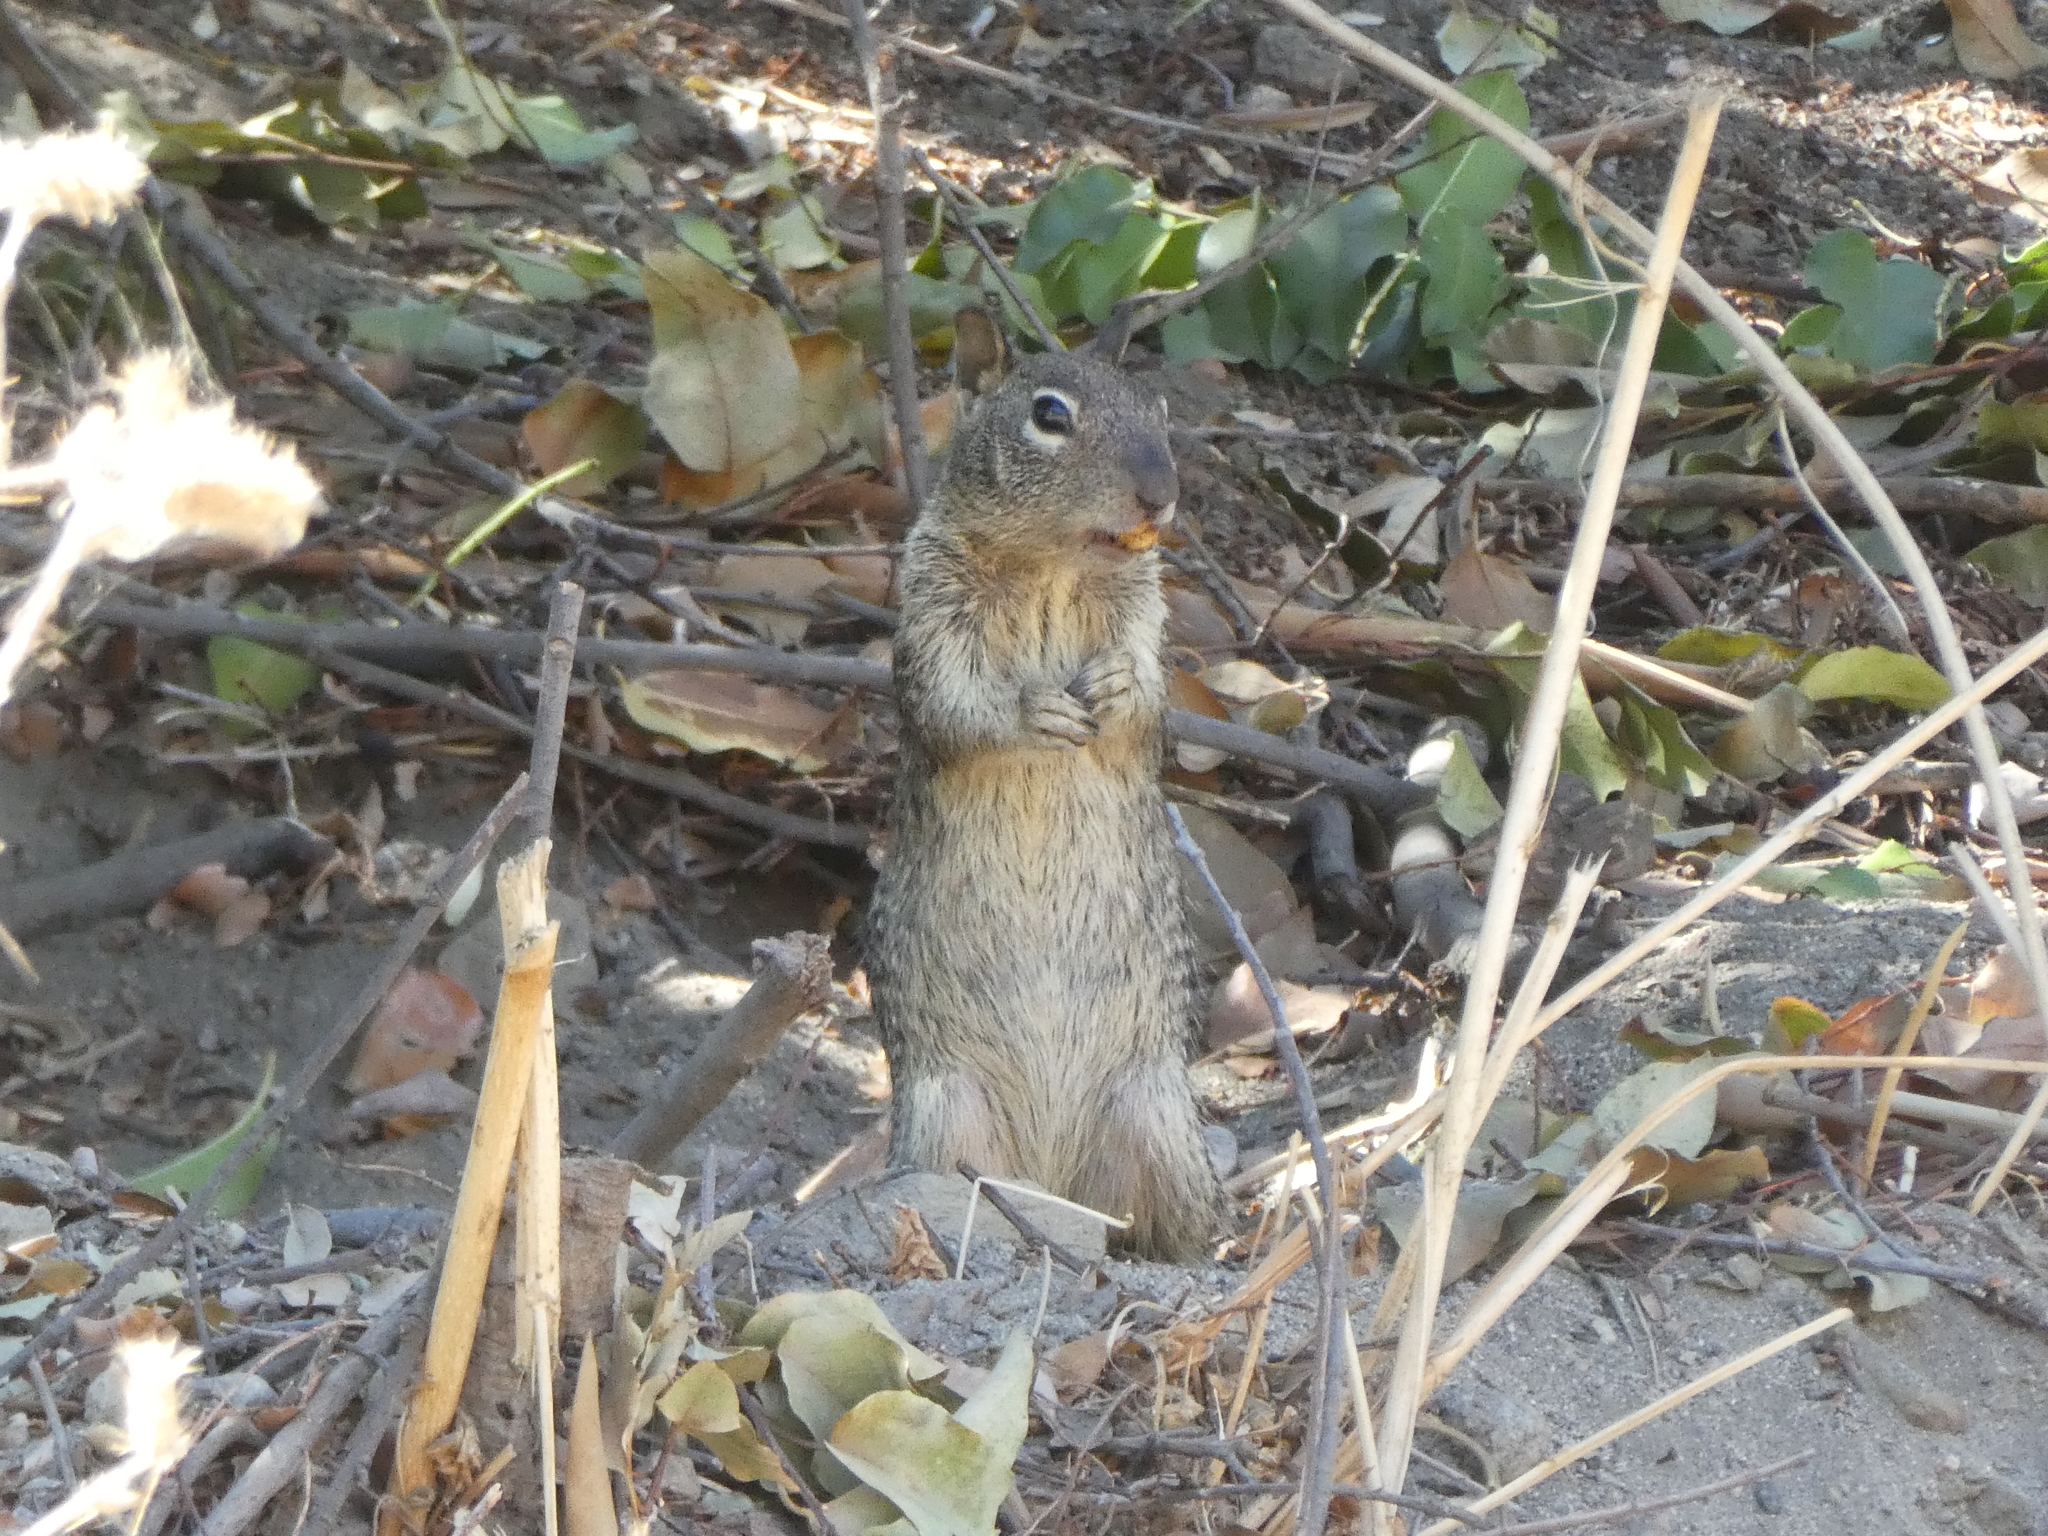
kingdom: Animalia
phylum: Chordata
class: Mammalia
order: Rodentia
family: Sciuridae
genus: Otospermophilus
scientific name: Otospermophilus beecheyi
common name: California ground squirrel
